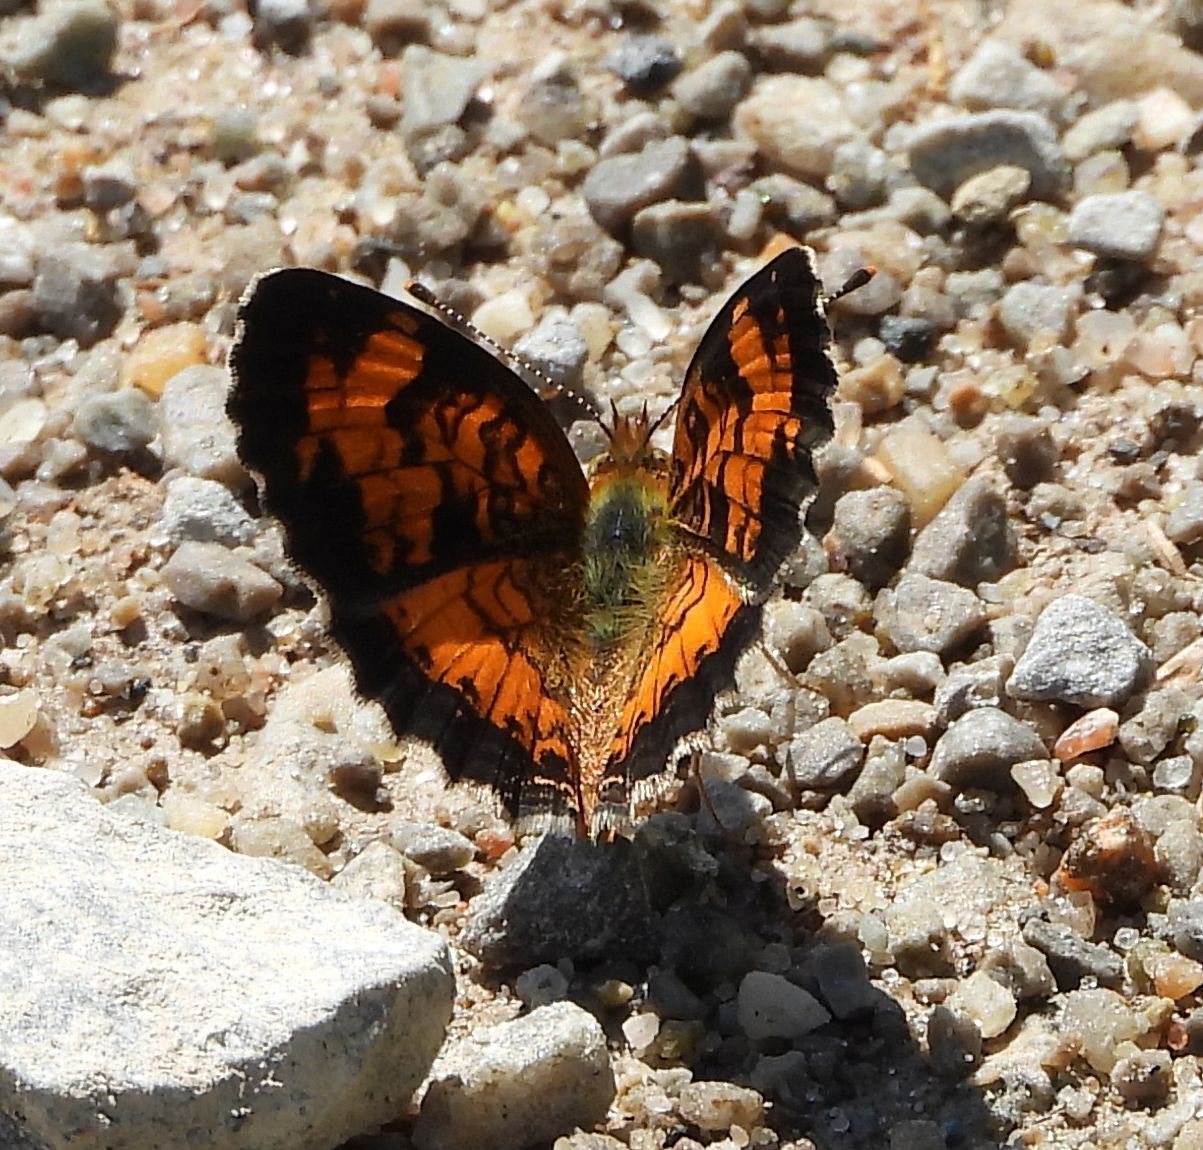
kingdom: Animalia
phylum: Arthropoda
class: Insecta
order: Lepidoptera
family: Nymphalidae
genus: Phyciodes
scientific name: Phyciodes tharos
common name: Pearl crescent
